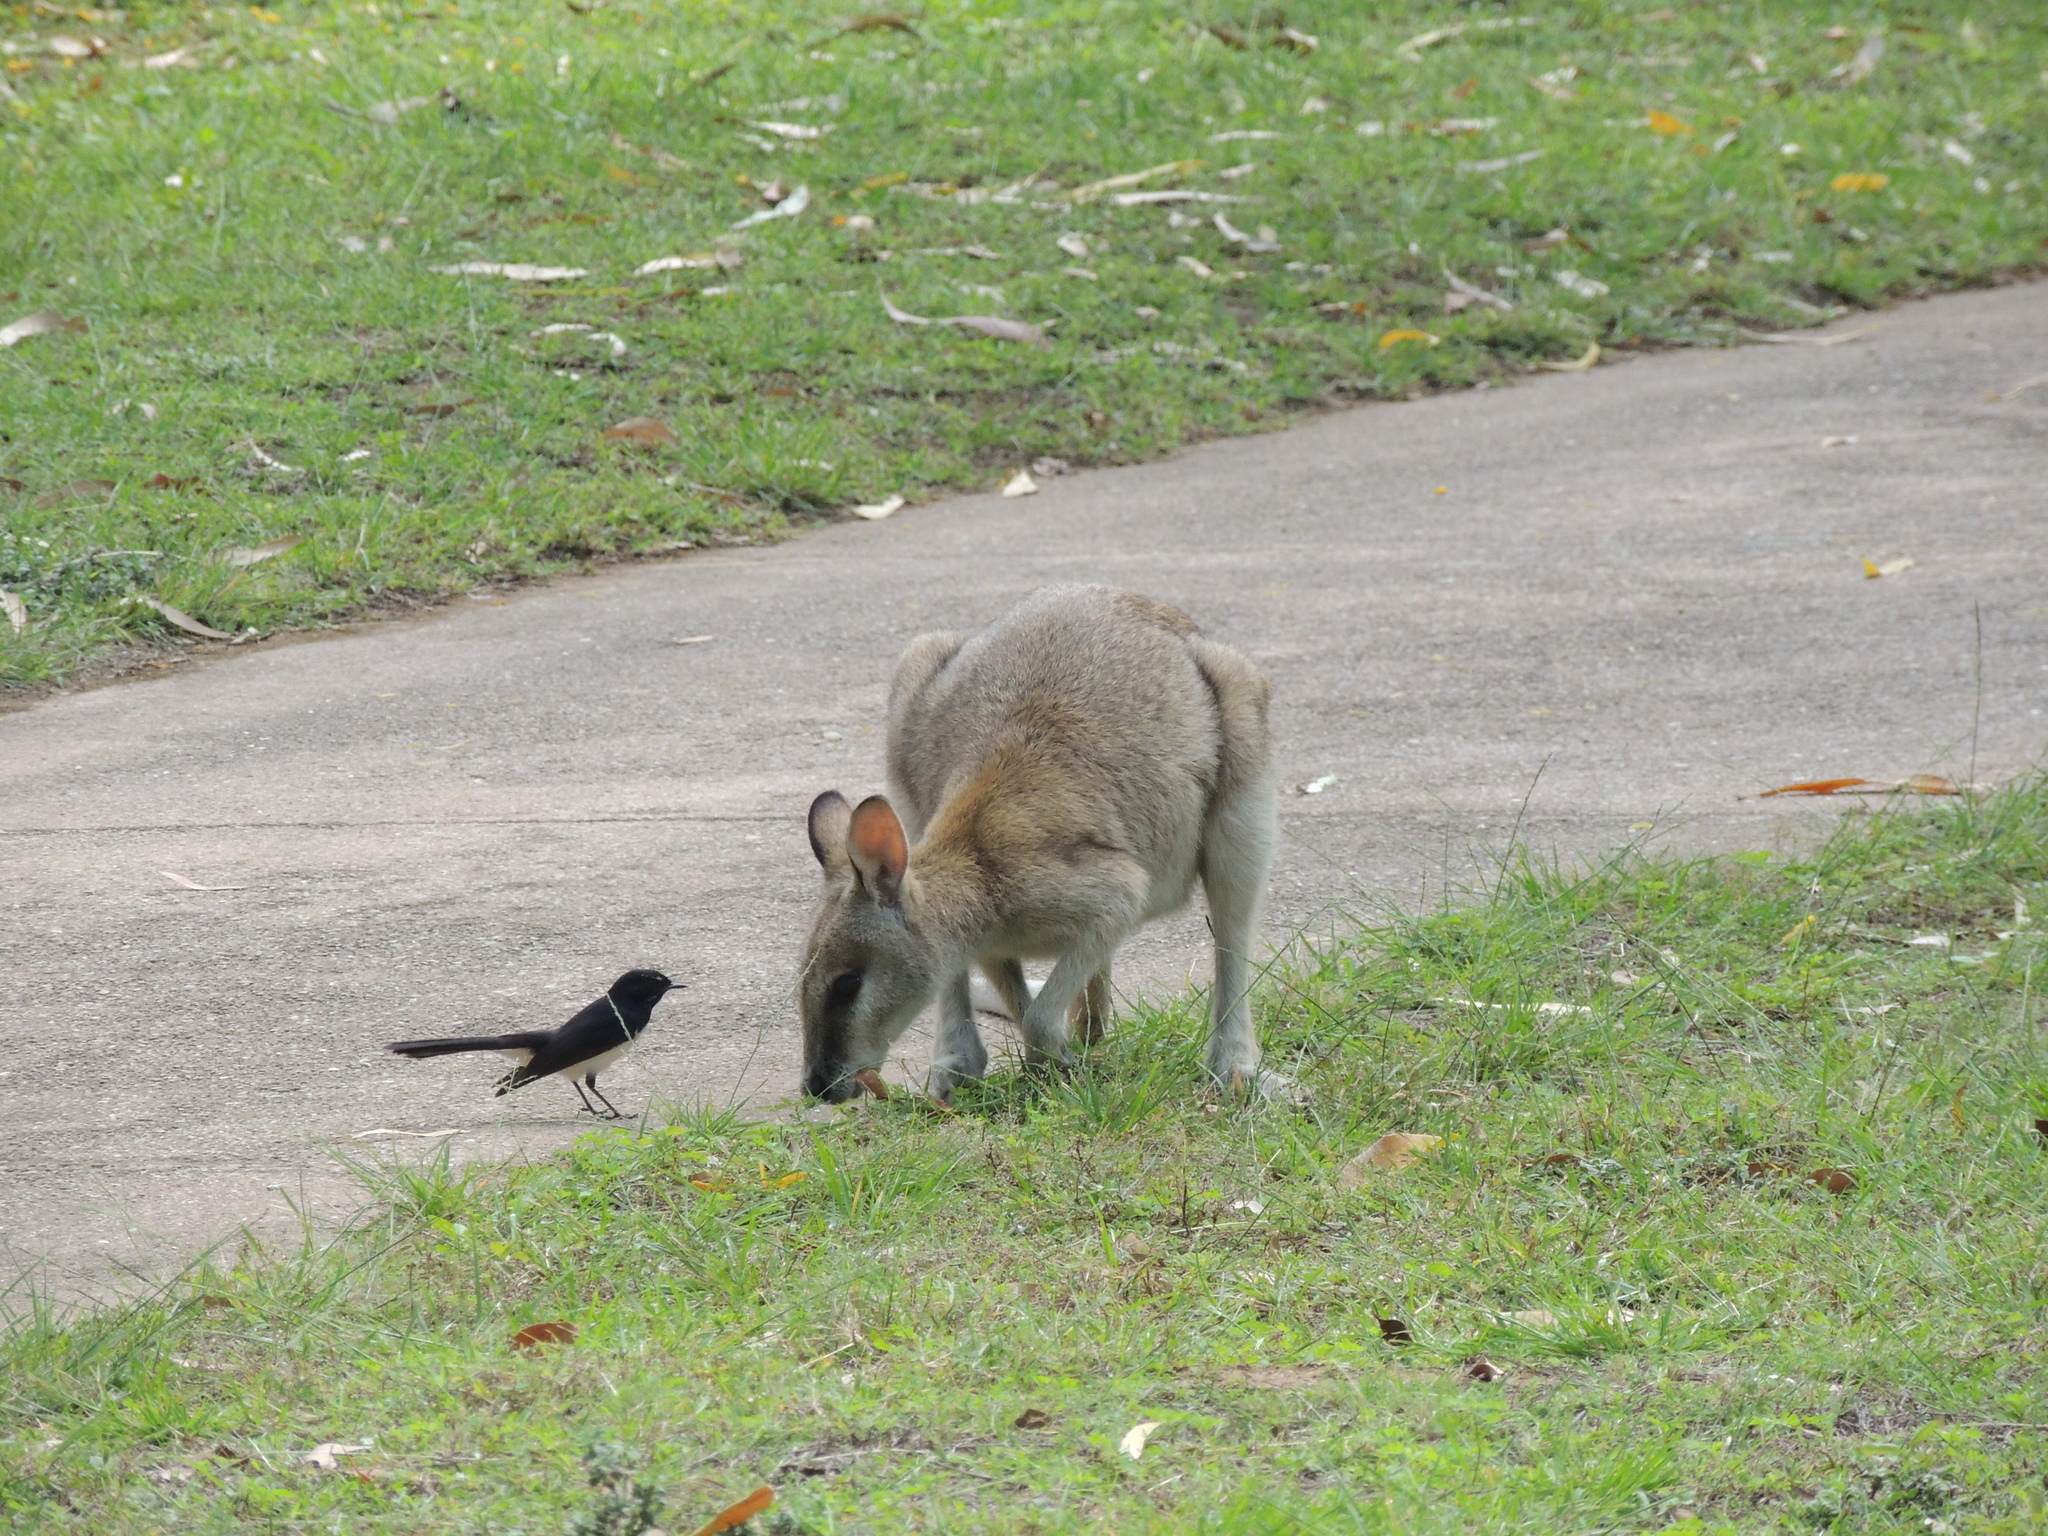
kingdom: Animalia
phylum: Chordata
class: Mammalia
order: Diprotodontia
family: Macropodidae
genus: Macropus
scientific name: Macropus agilis
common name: Agile wallaby
